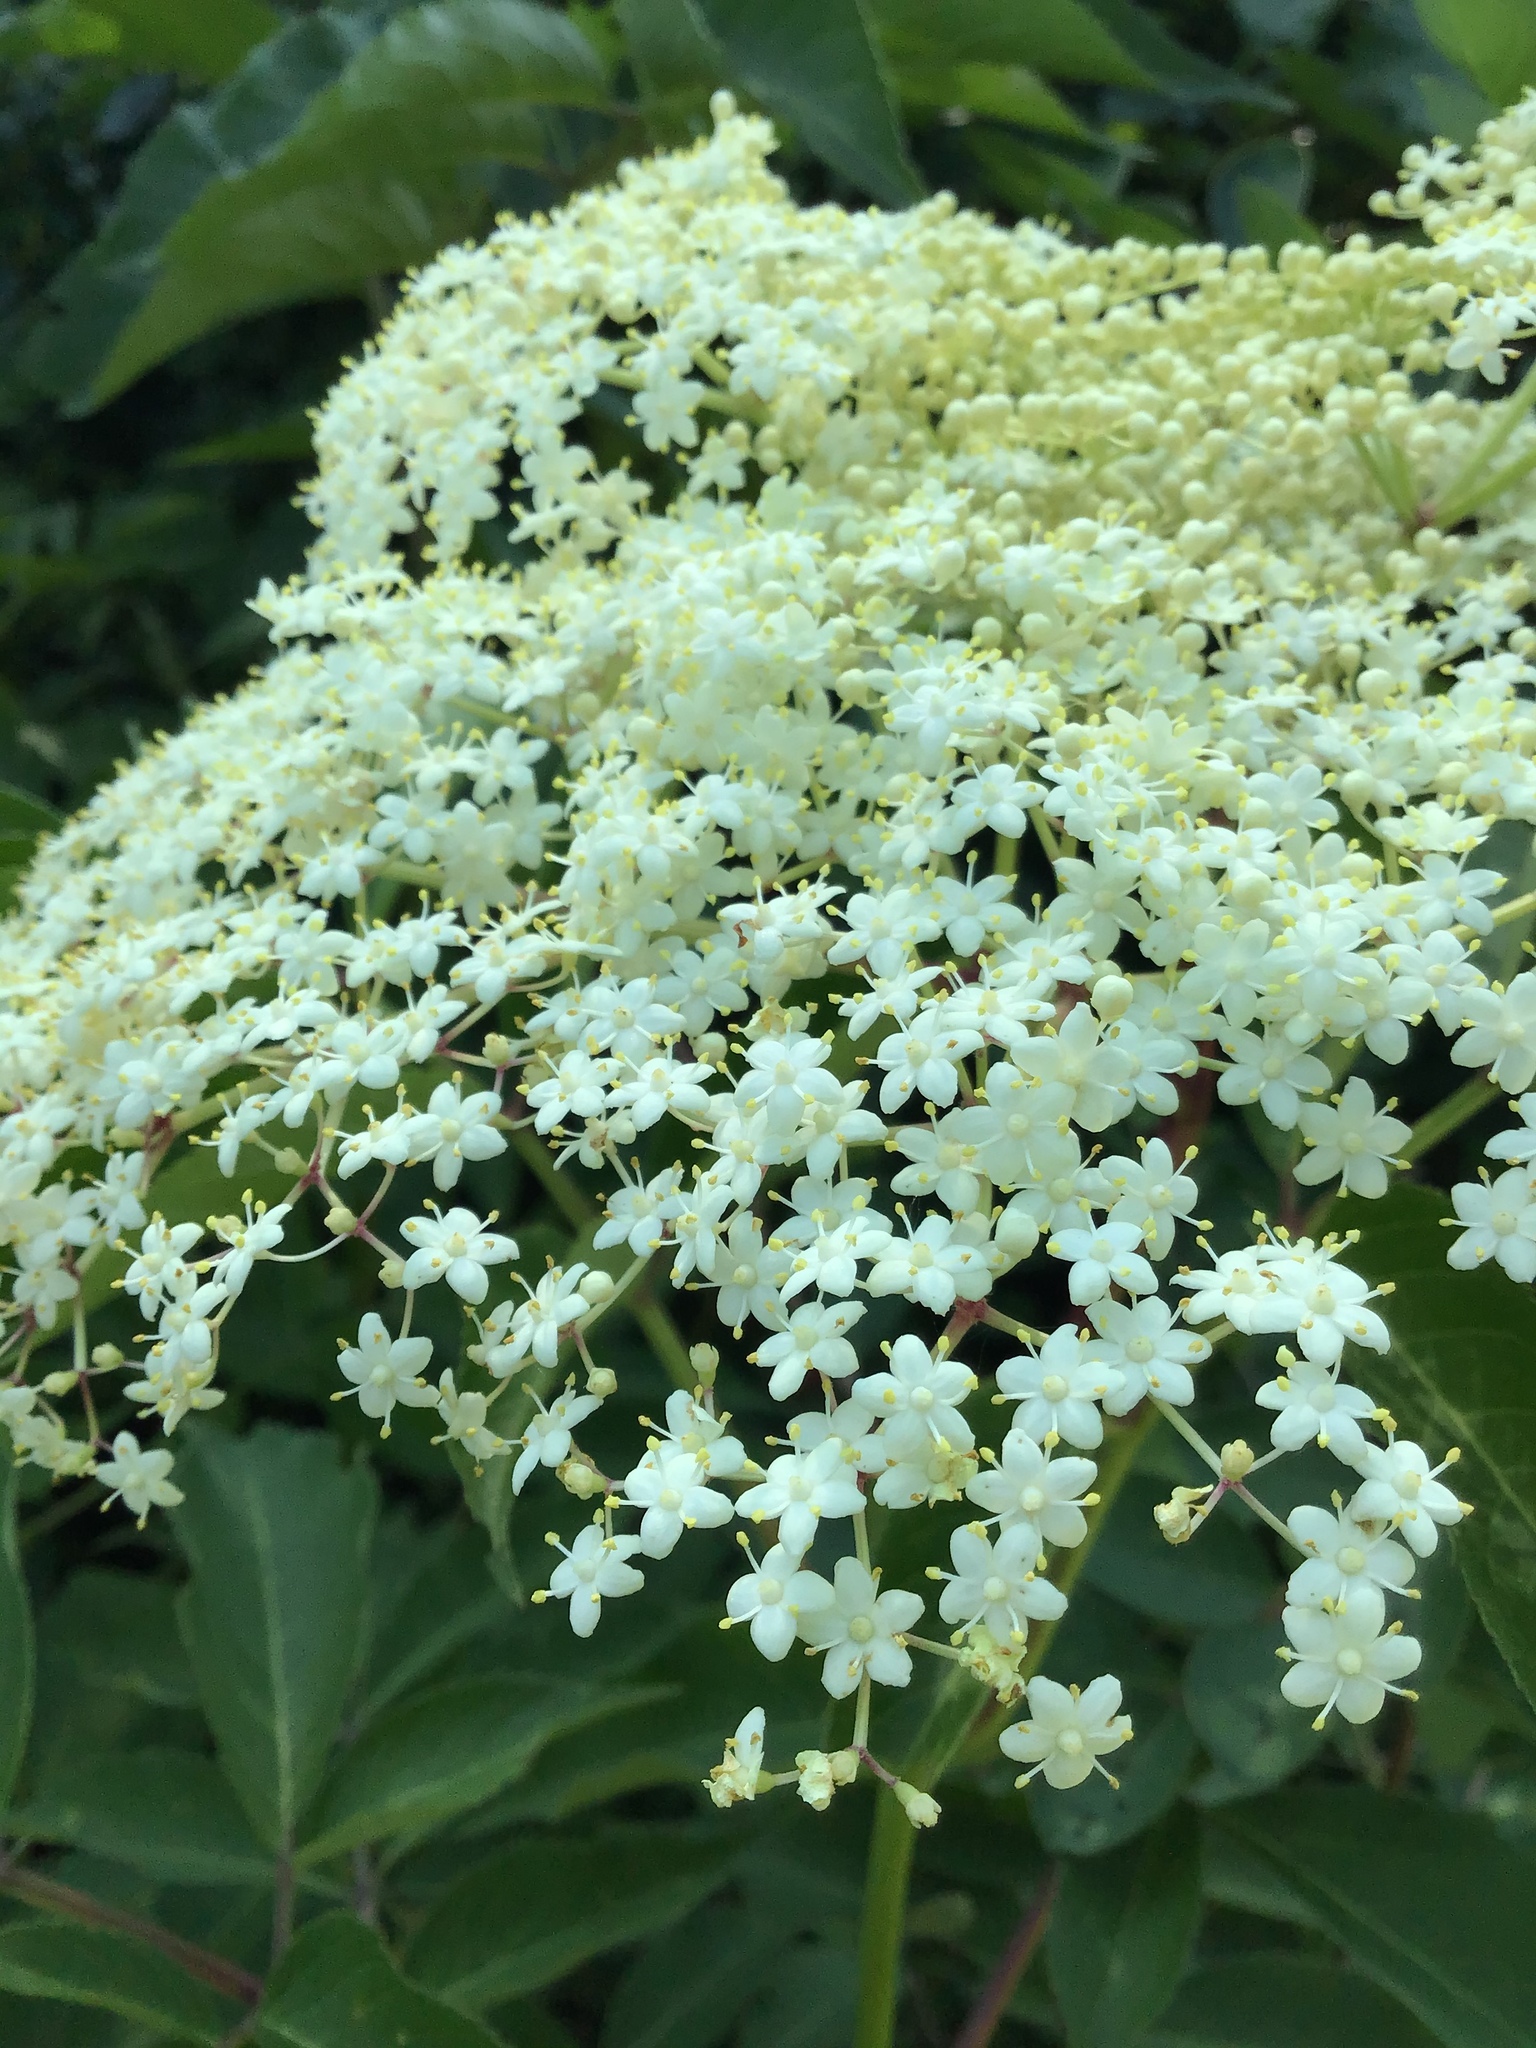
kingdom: Plantae
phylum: Tracheophyta
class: Magnoliopsida
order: Dipsacales
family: Viburnaceae
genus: Sambucus
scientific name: Sambucus canadensis
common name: American elder
